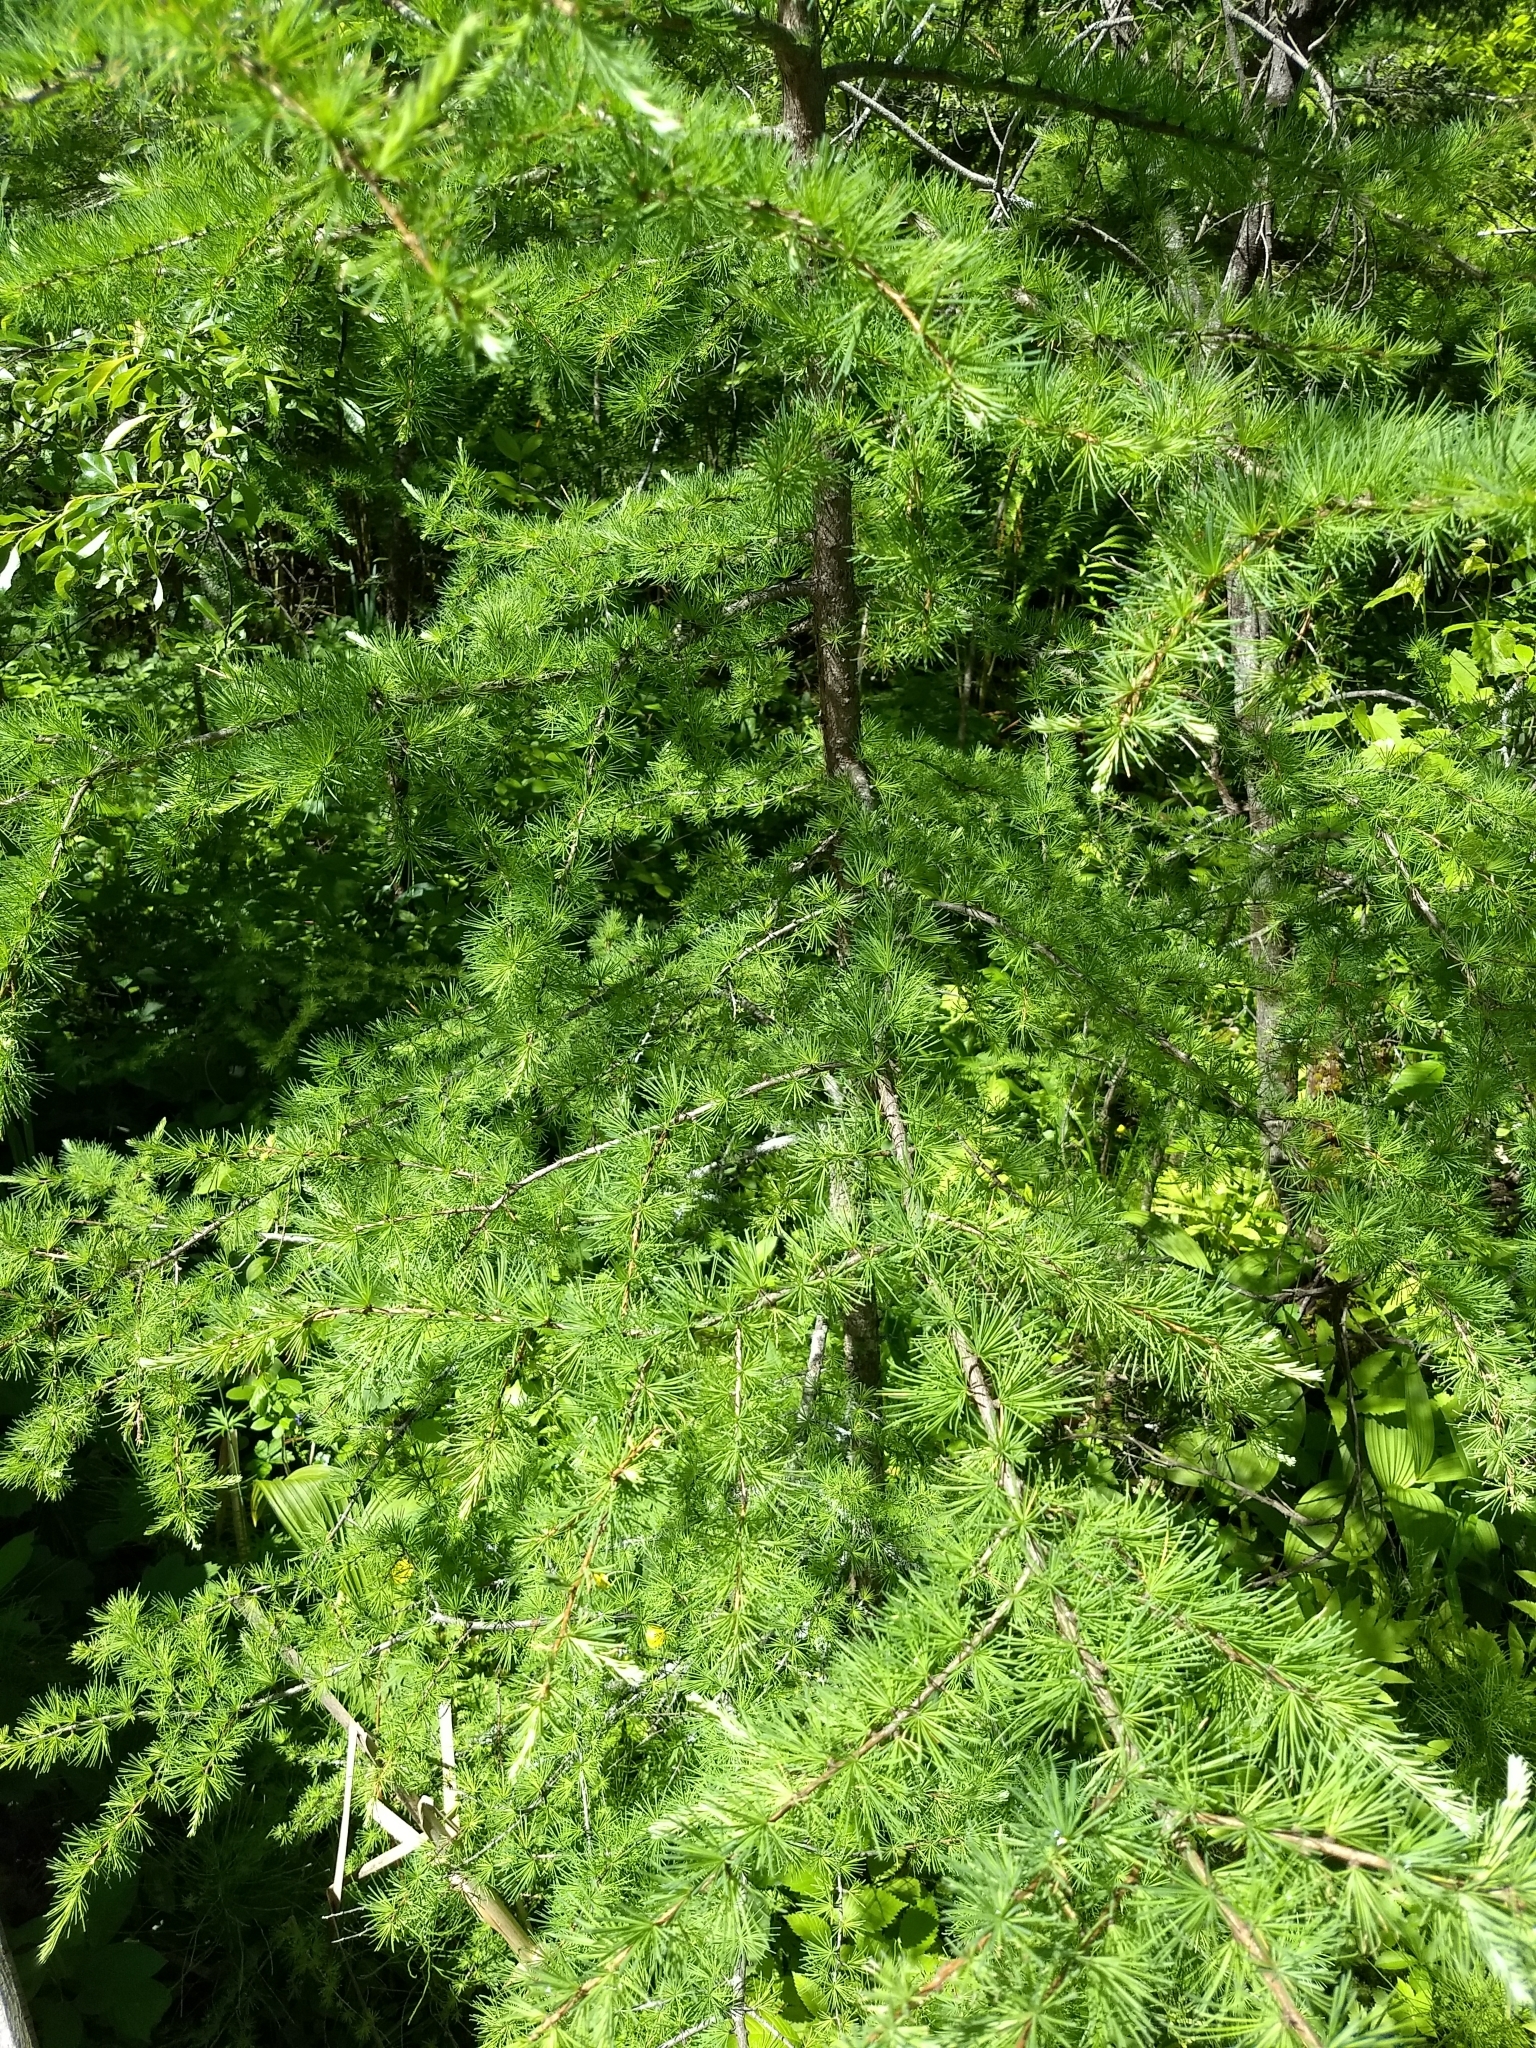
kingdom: Plantae
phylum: Tracheophyta
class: Pinopsida
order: Pinales
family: Pinaceae
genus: Larix
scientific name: Larix laricina
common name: American larch
